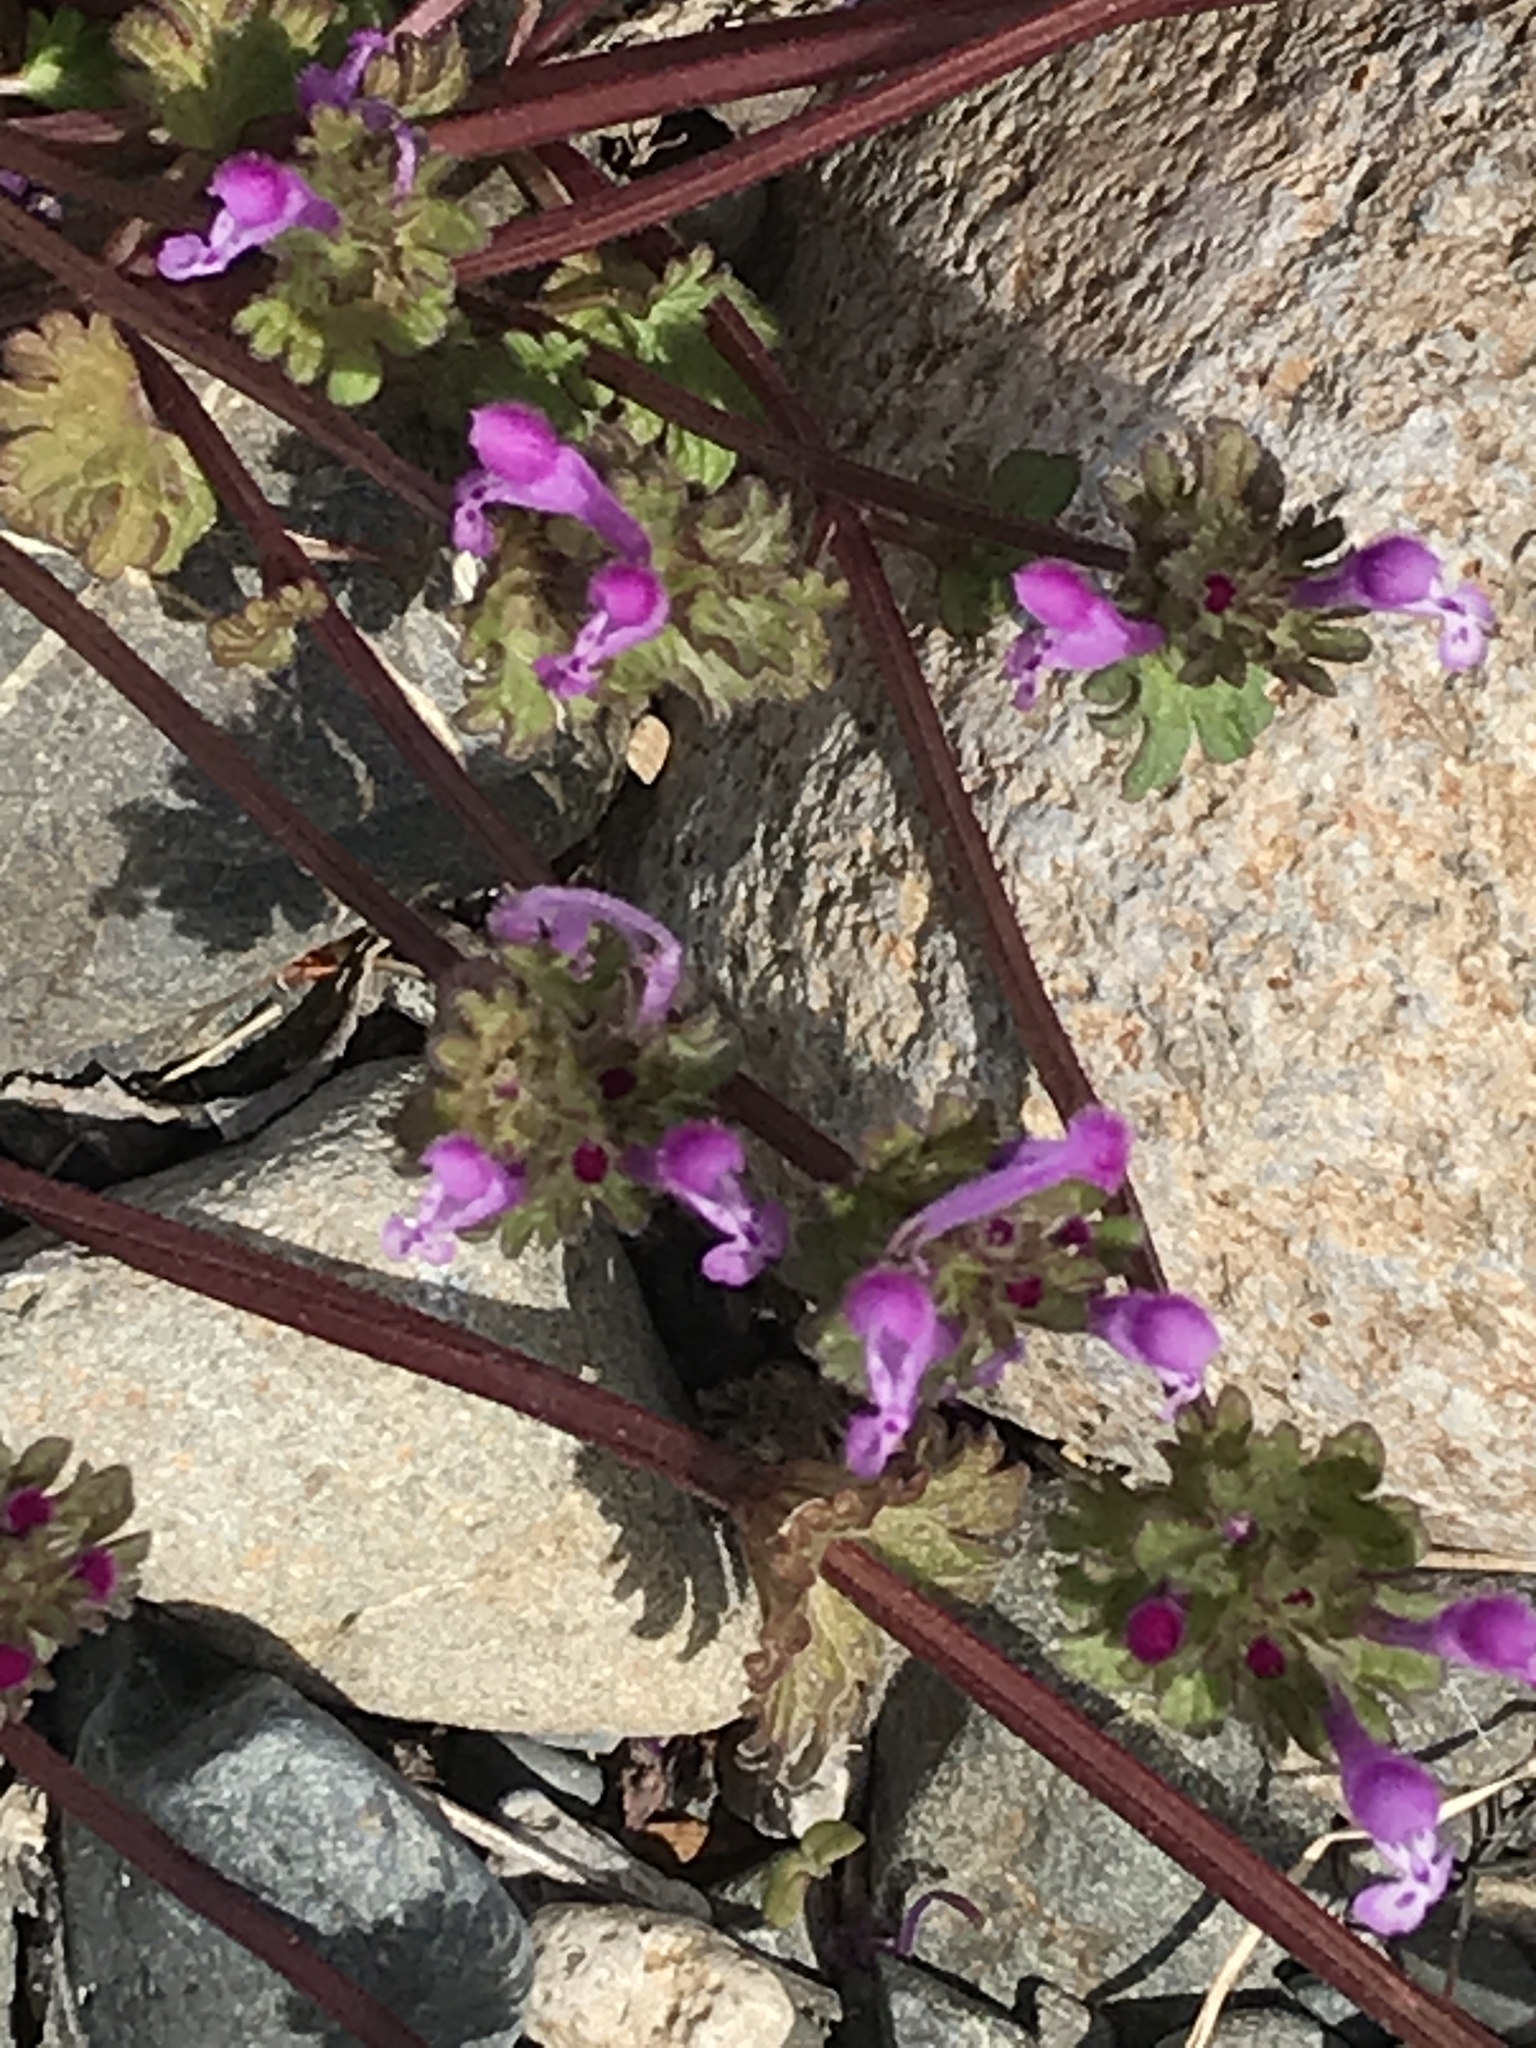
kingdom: Plantae
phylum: Tracheophyta
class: Magnoliopsida
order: Lamiales
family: Lamiaceae
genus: Lamium
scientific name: Lamium amplexicaule
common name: Henbit dead-nettle
